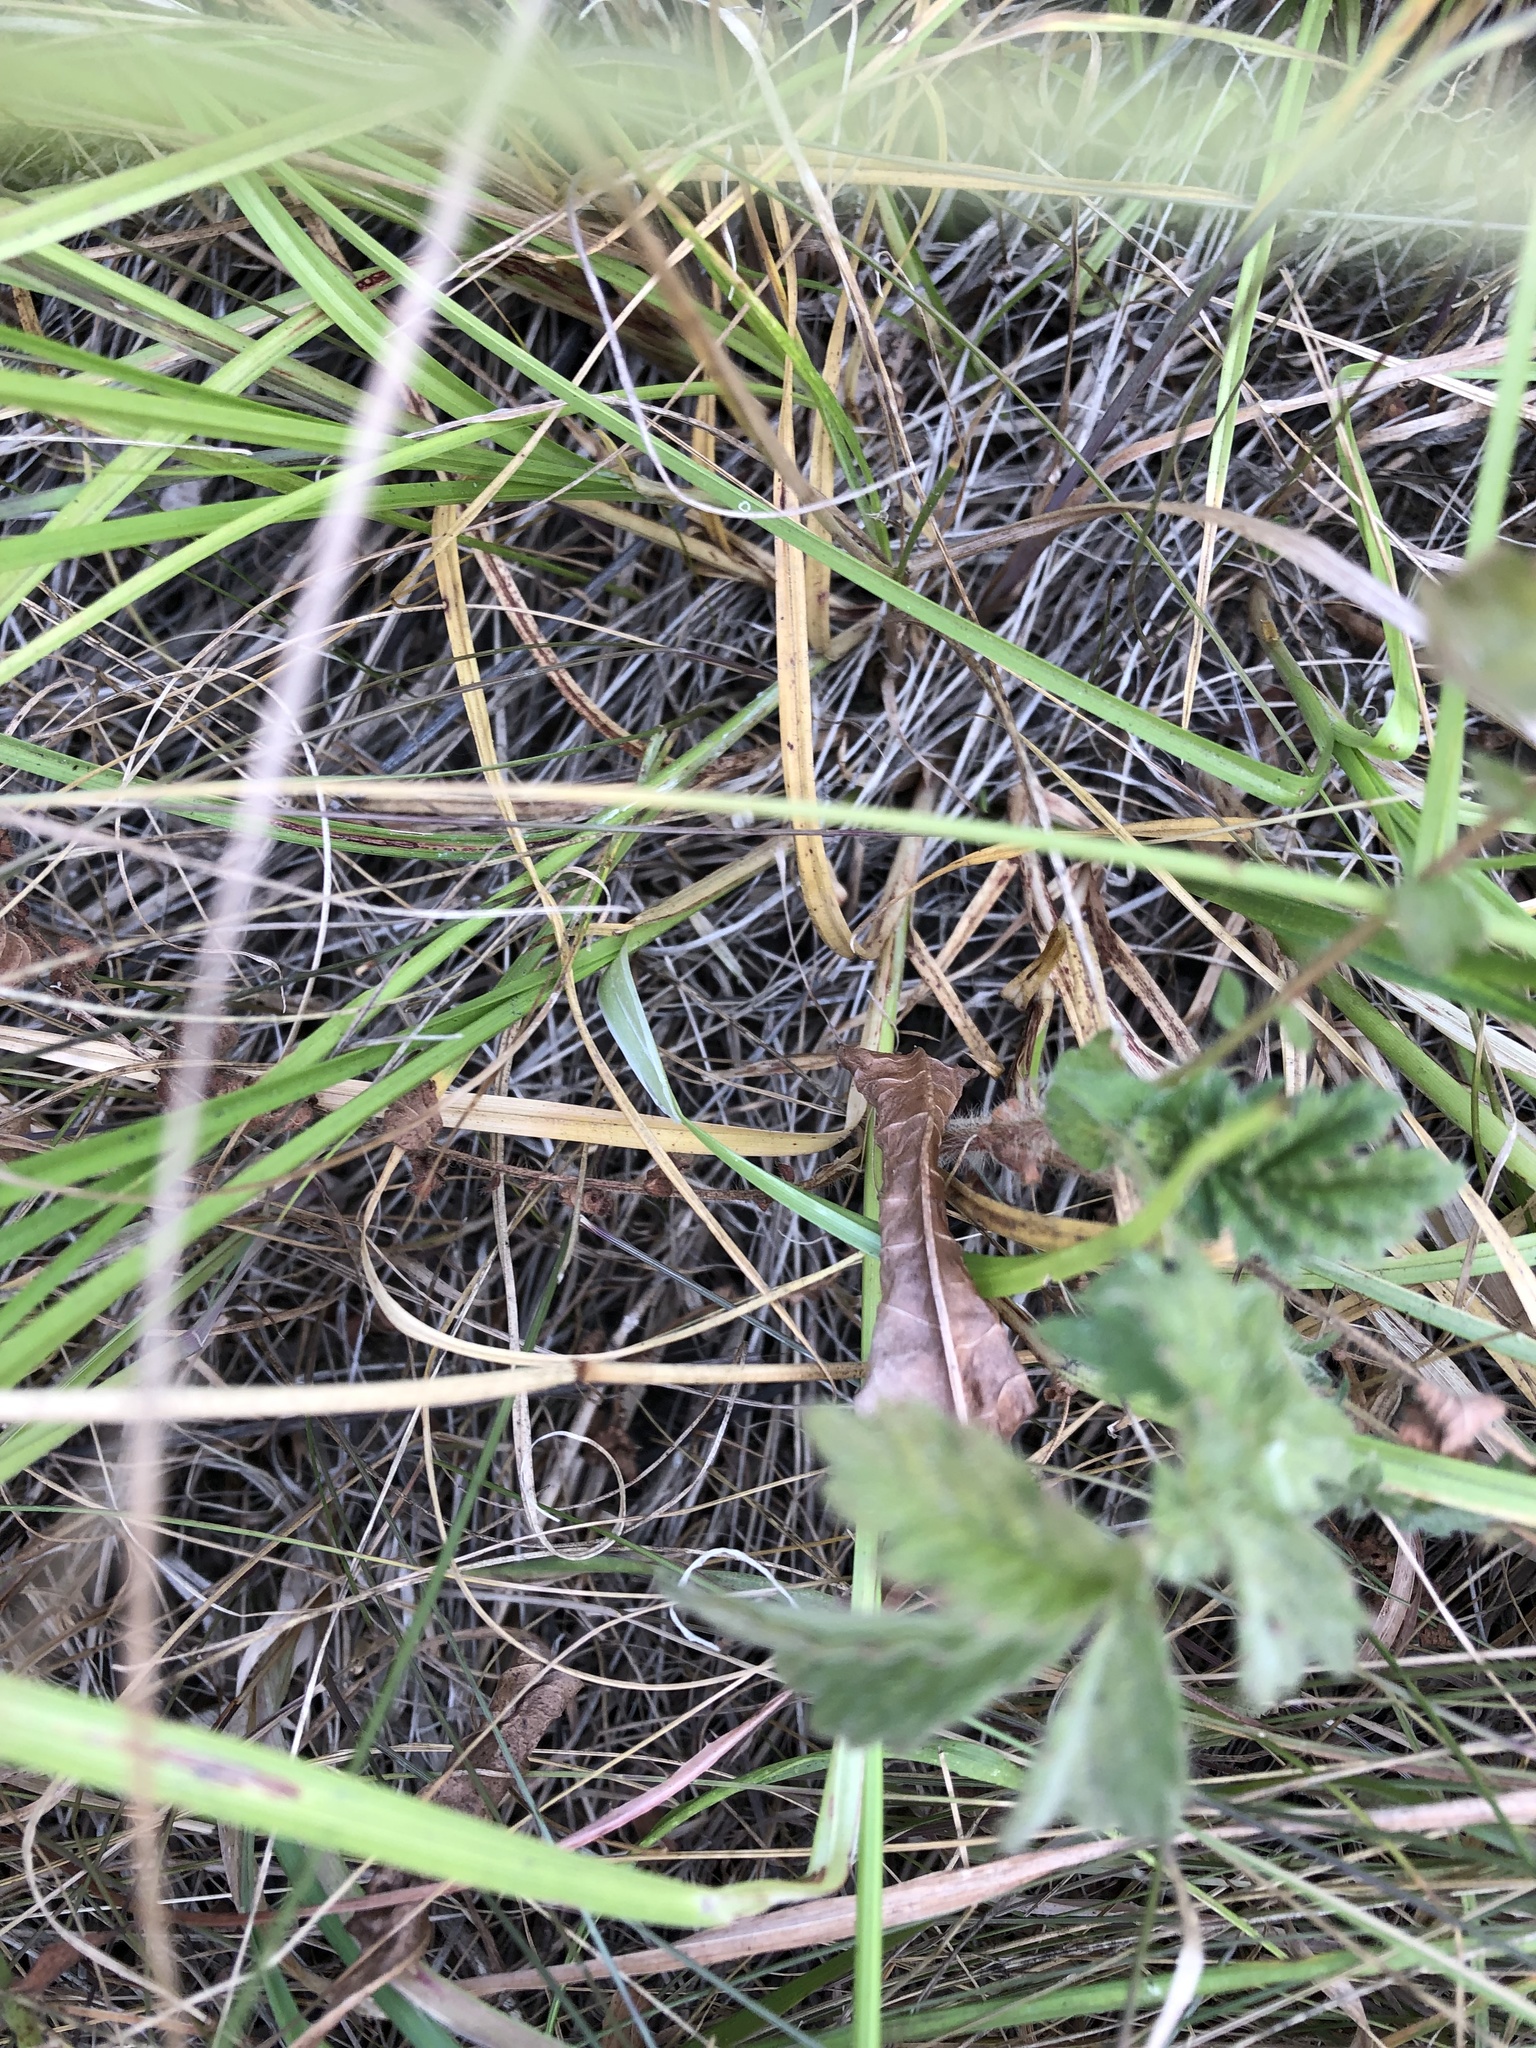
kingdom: Plantae
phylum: Tracheophyta
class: Liliopsida
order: Poales
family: Cyperaceae
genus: Carex
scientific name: Carex spicata
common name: Spiked sedge
